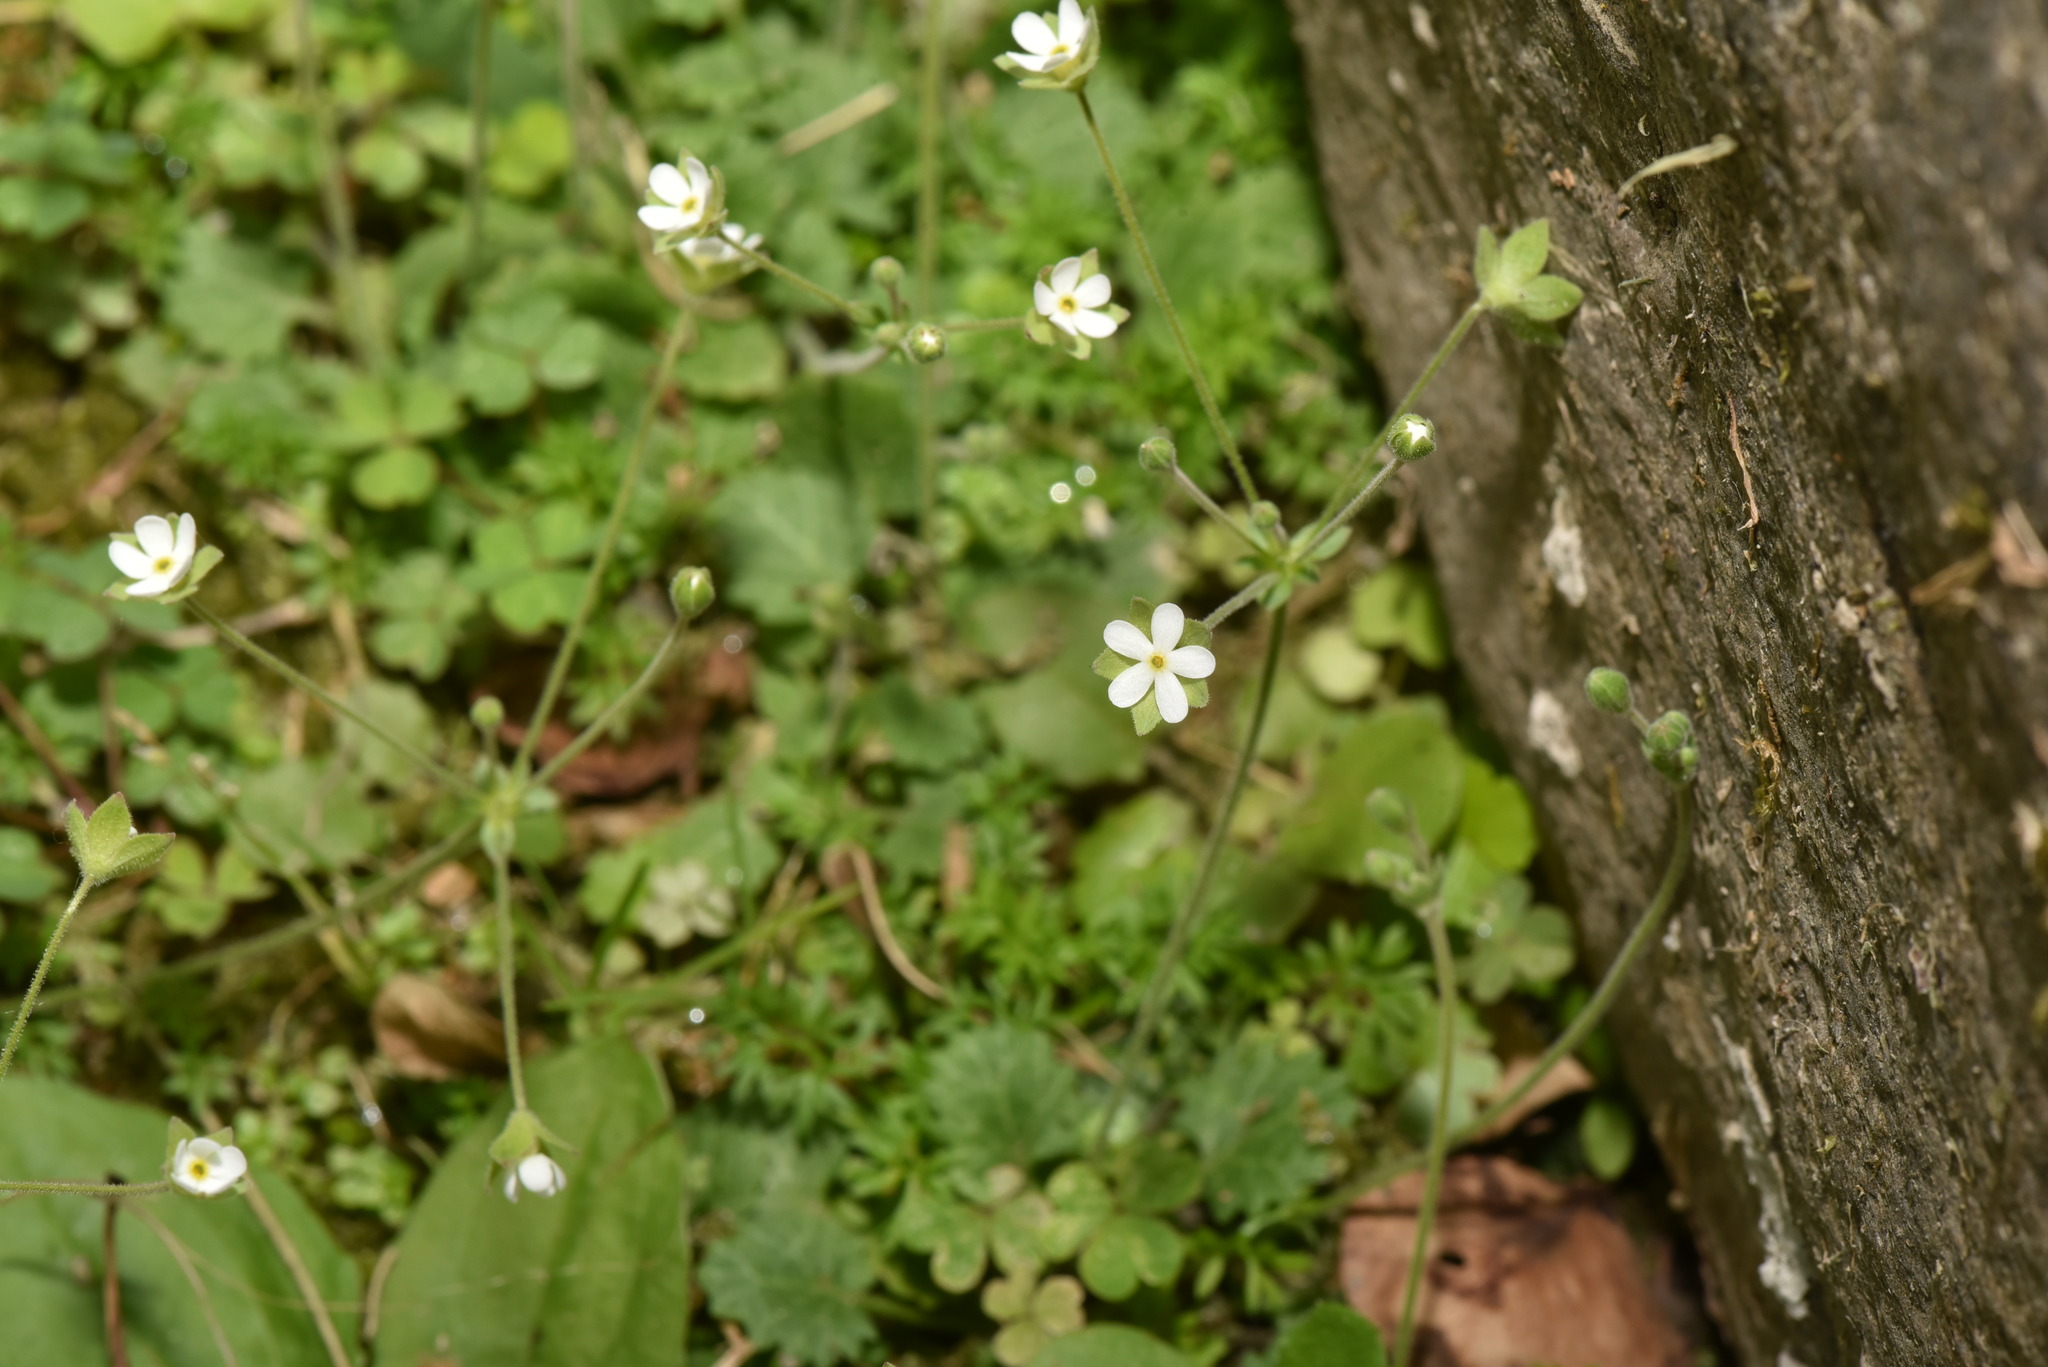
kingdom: Plantae
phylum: Tracheophyta
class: Magnoliopsida
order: Ericales
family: Primulaceae
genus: Androsace
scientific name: Androsace umbellata
